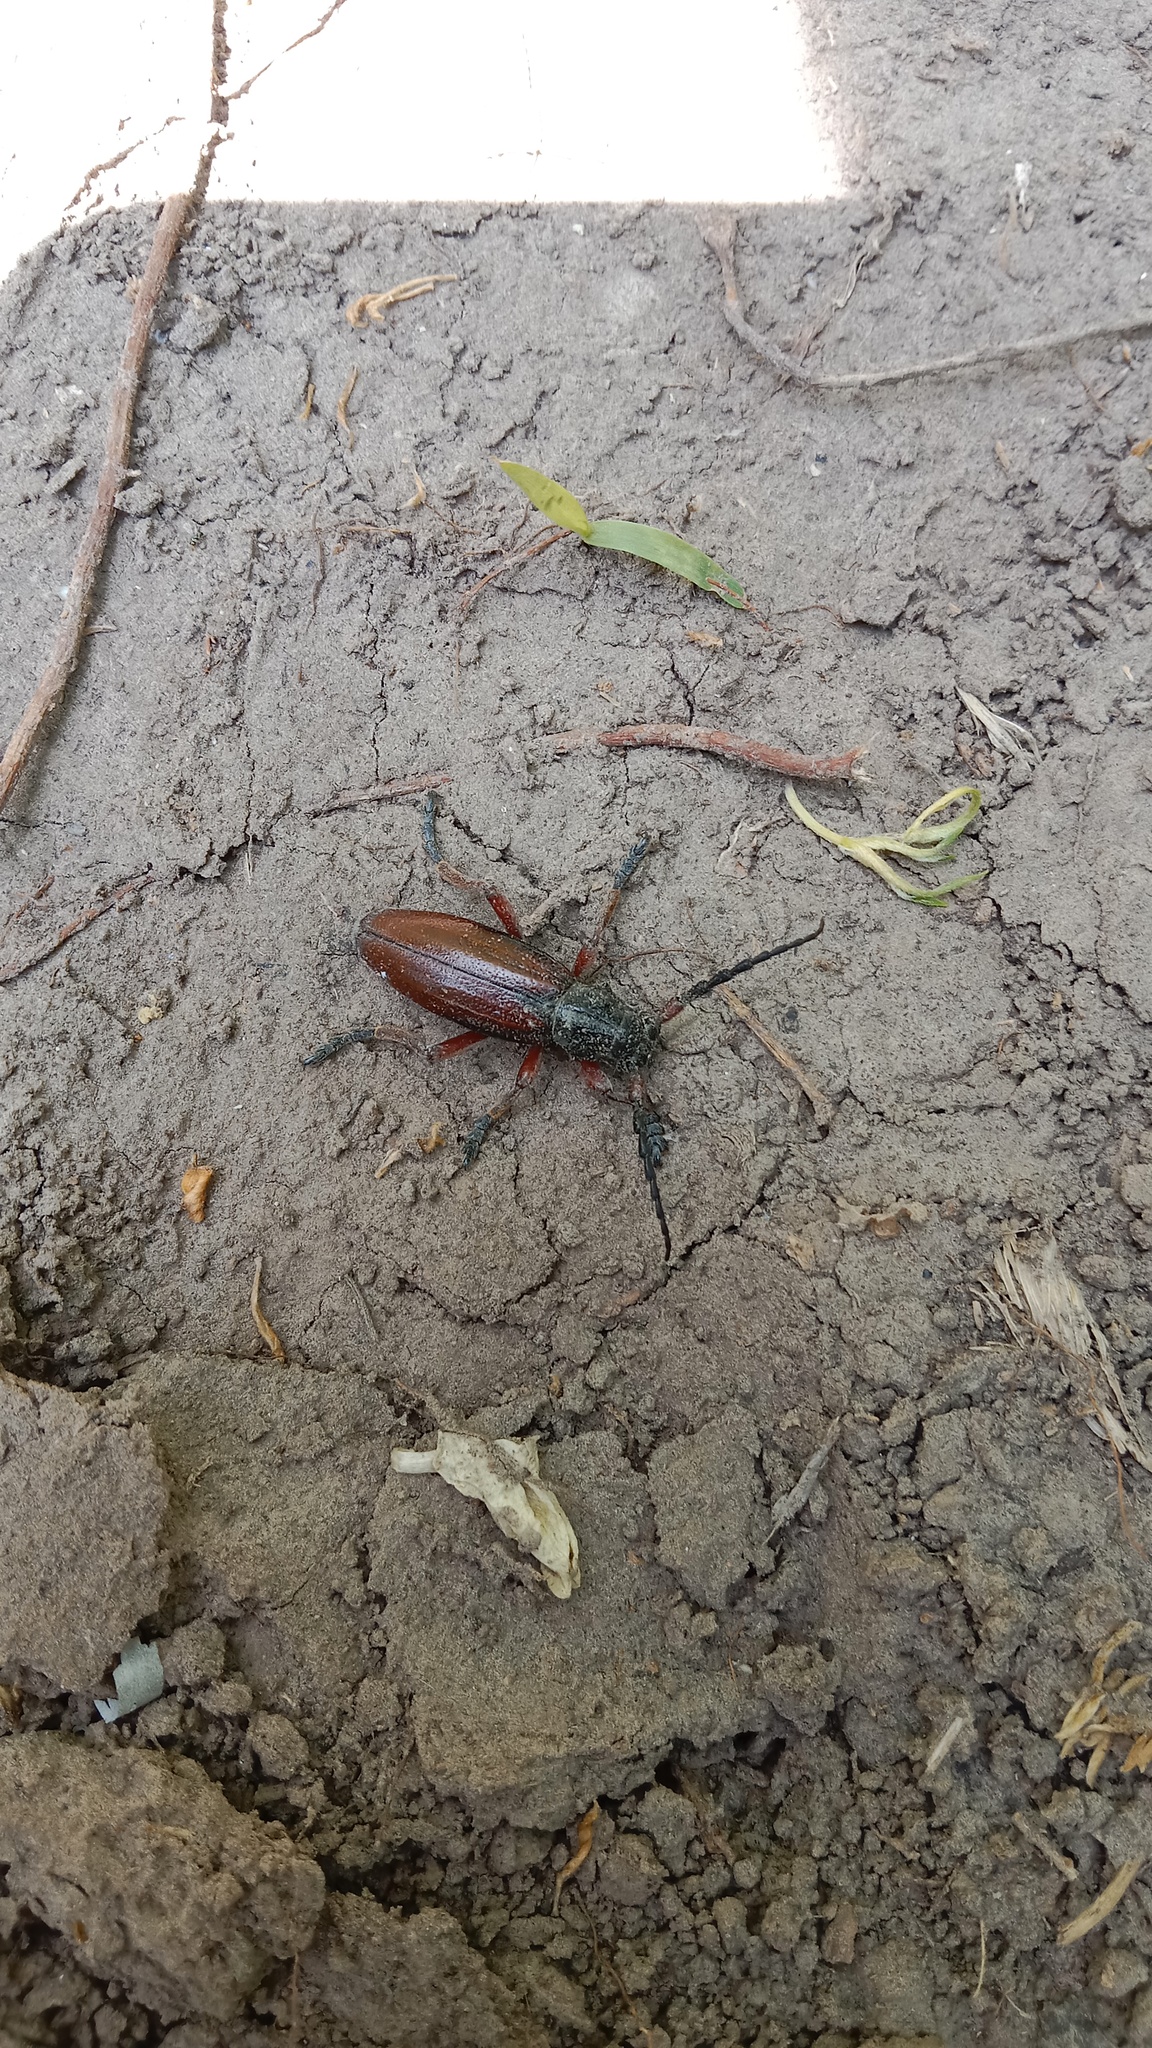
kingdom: Animalia
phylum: Arthropoda
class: Insecta
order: Coleoptera
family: Cerambycidae
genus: Dorcadion
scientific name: Dorcadion fulvum
